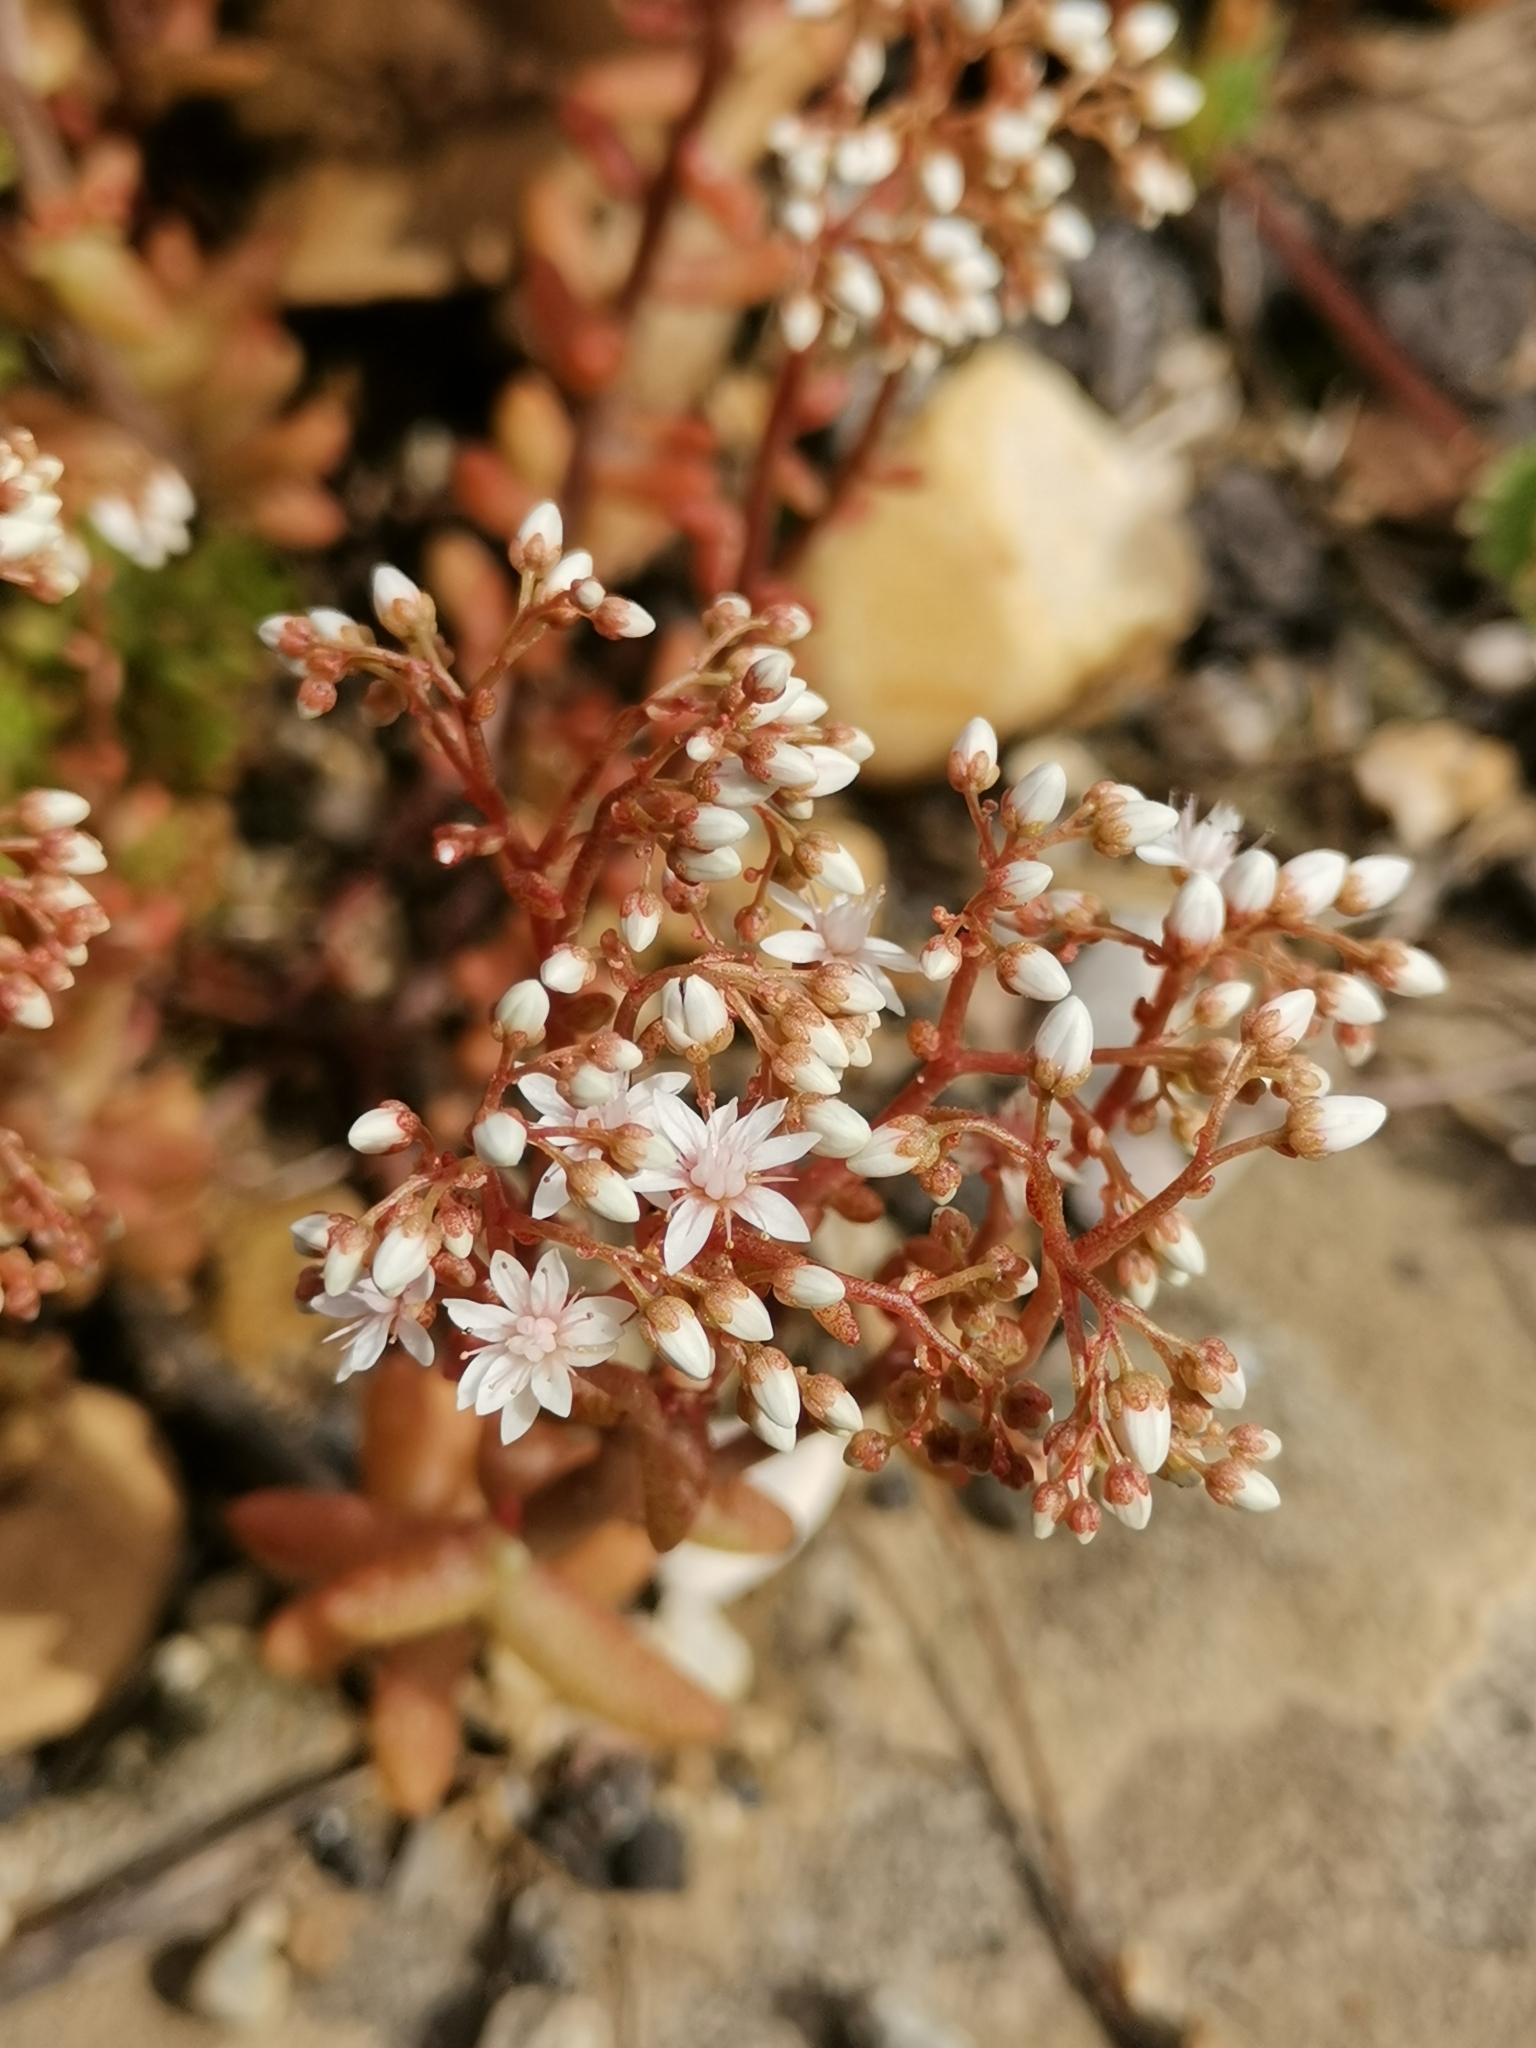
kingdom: Plantae
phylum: Tracheophyta
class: Magnoliopsida
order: Saxifragales
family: Crassulaceae
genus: Sedum
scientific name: Sedum album
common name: White stonecrop
